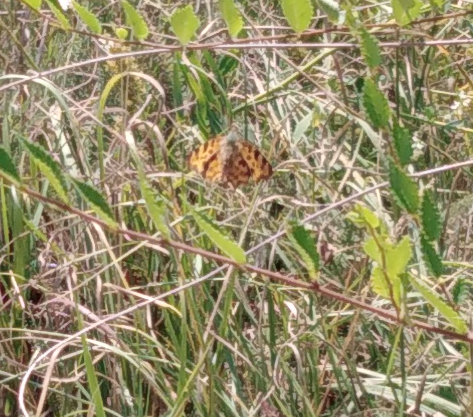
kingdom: Animalia
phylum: Arthropoda
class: Insecta
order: Lepidoptera
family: Nymphalidae
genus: Polygonia
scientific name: Polygonia c-album
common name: Comma
